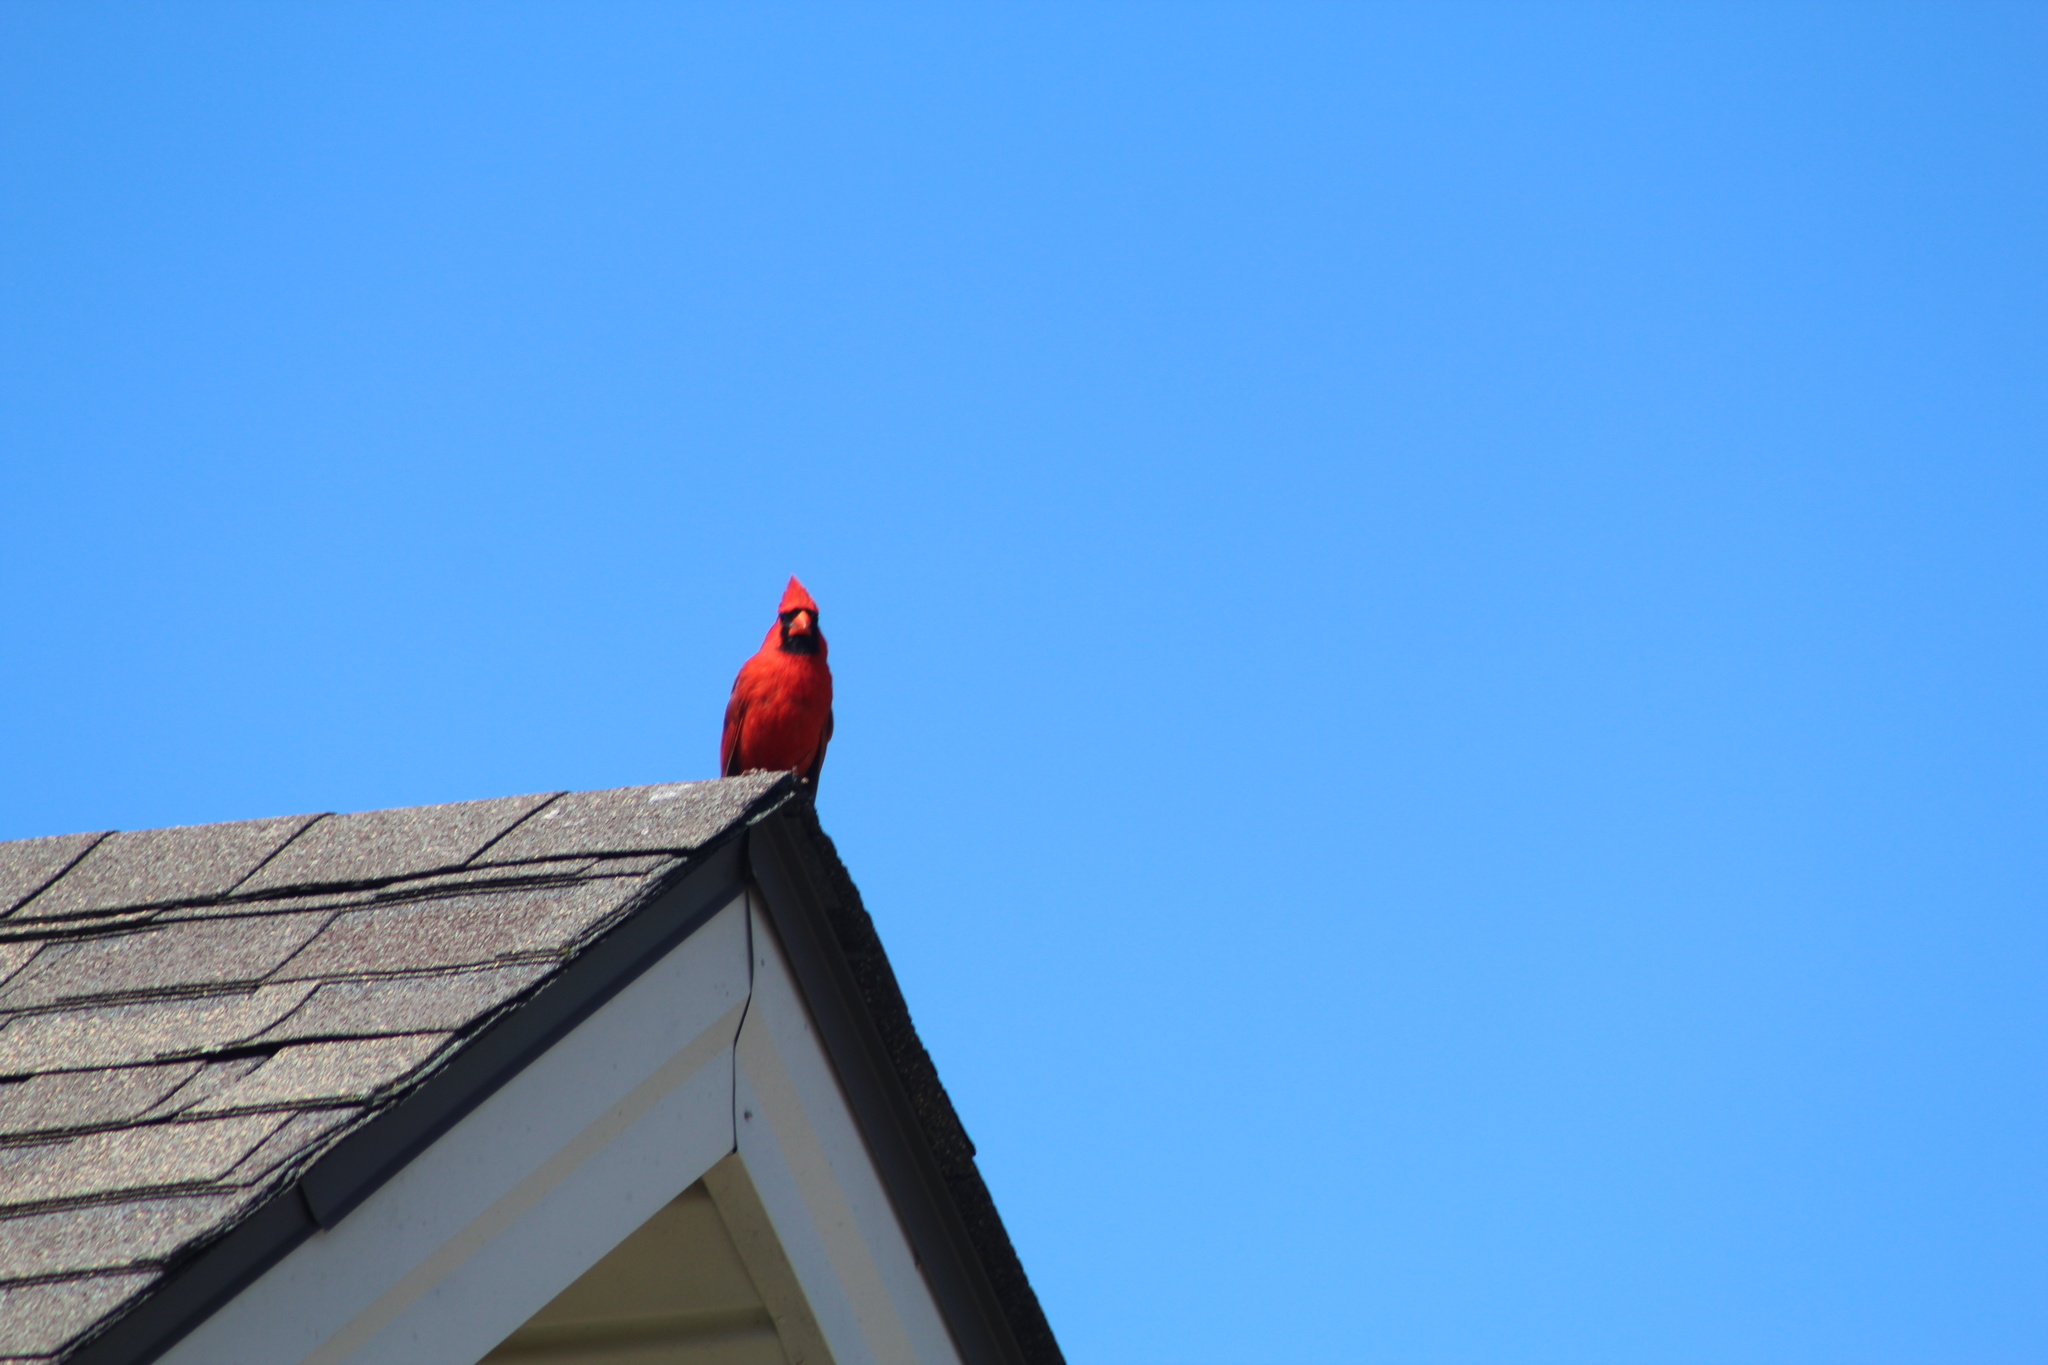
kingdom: Animalia
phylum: Chordata
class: Aves
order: Passeriformes
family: Cardinalidae
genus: Cardinalis
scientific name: Cardinalis cardinalis
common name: Northern cardinal
